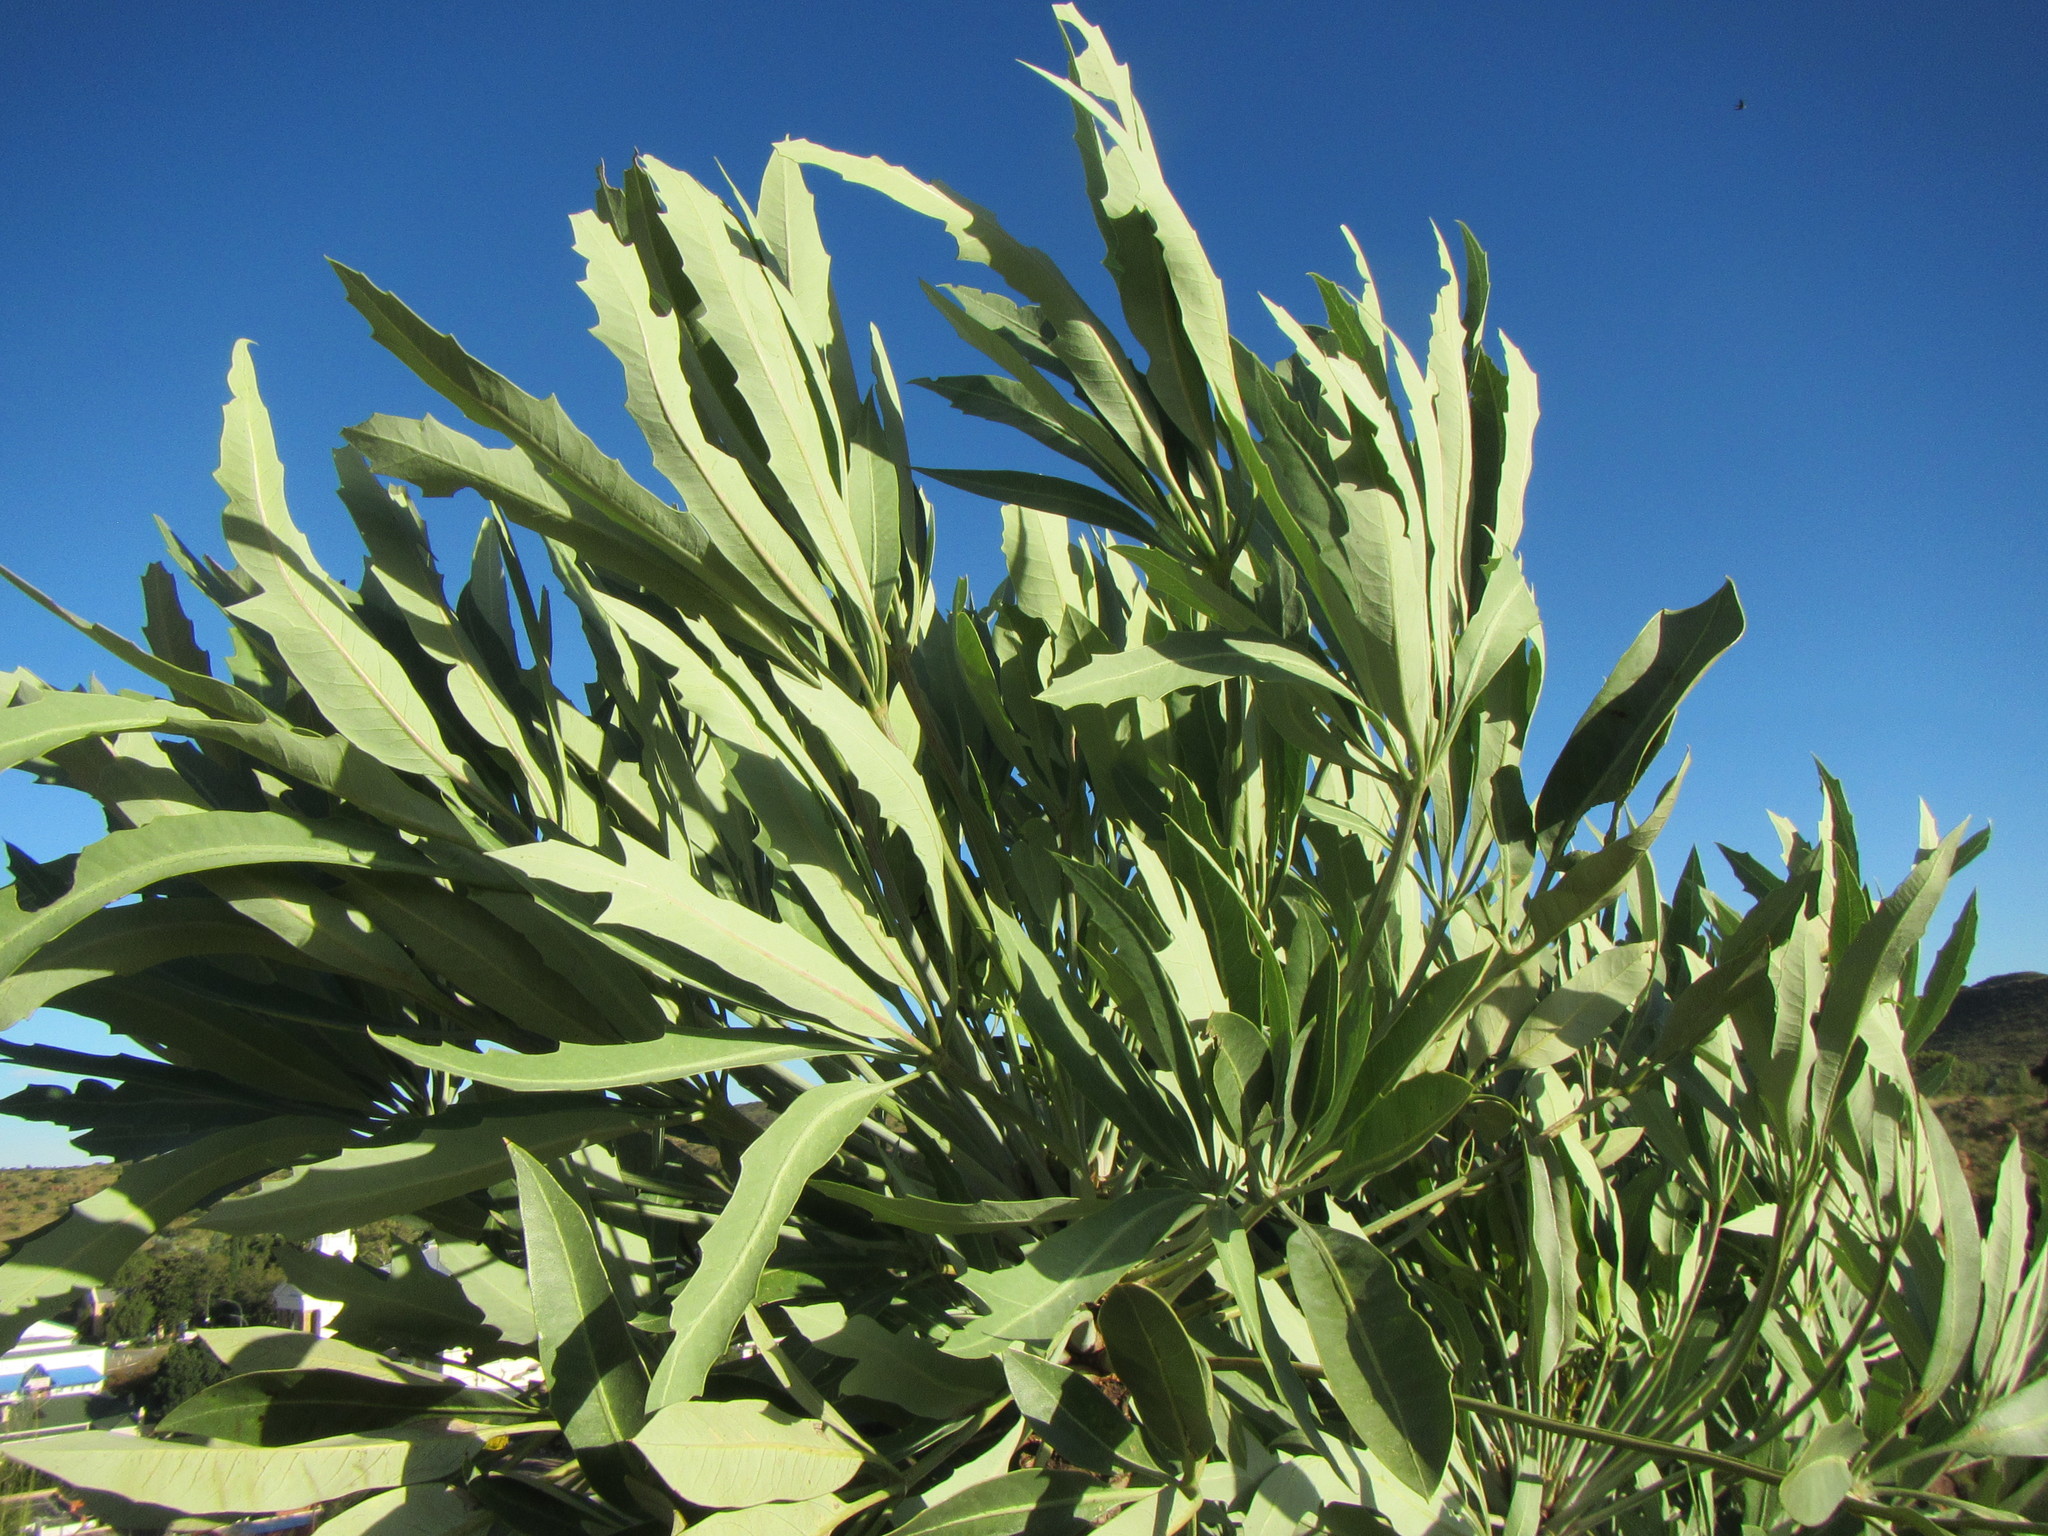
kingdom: Plantae
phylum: Tracheophyta
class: Magnoliopsida
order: Apiales
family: Araliaceae
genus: Cussonia
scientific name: Cussonia paniculata
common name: Cabbagetree
